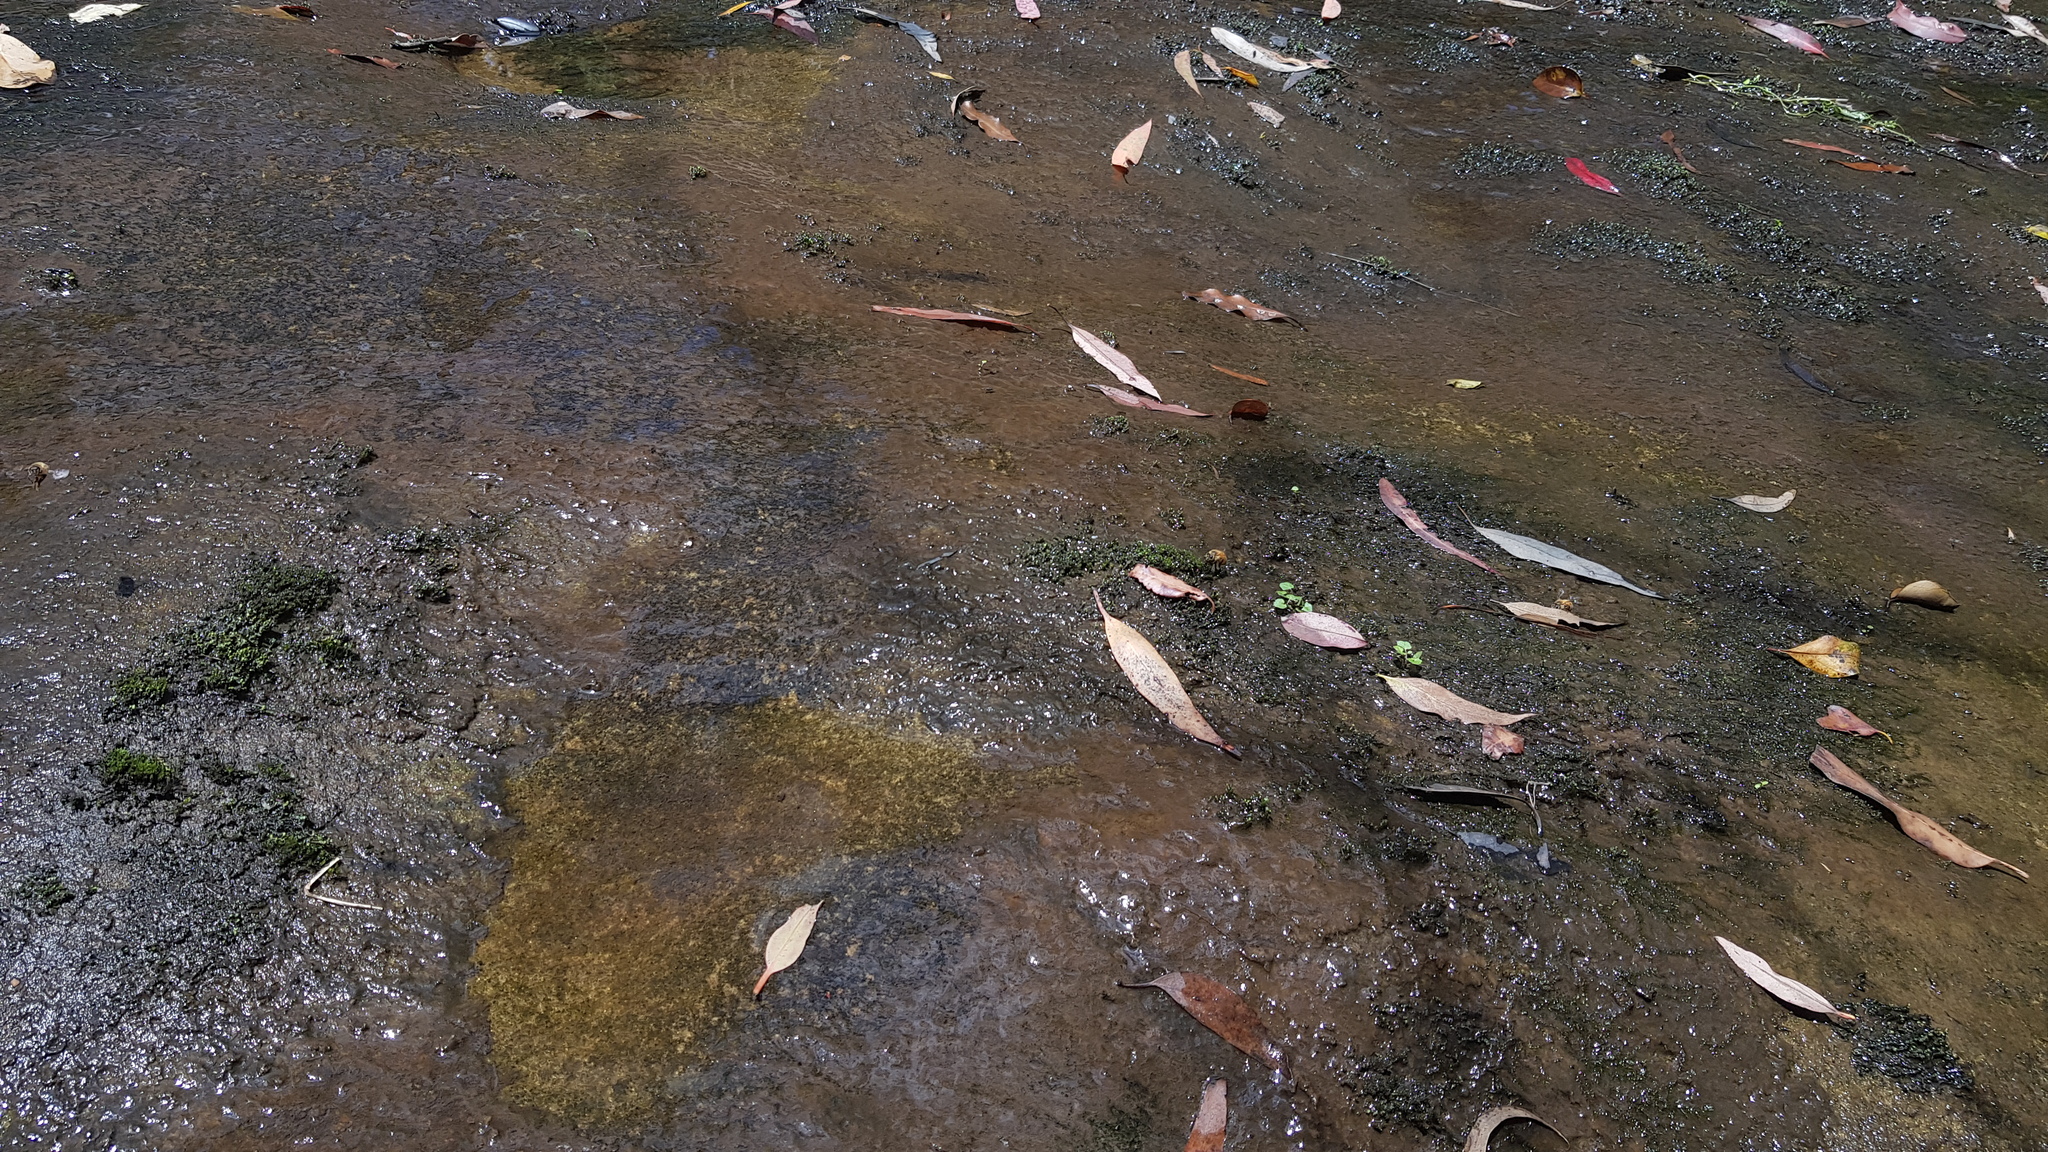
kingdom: Animalia
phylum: Arthropoda
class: Insecta
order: Hymenoptera
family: Apidae
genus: Apis
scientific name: Apis mellifera
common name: Honey bee
